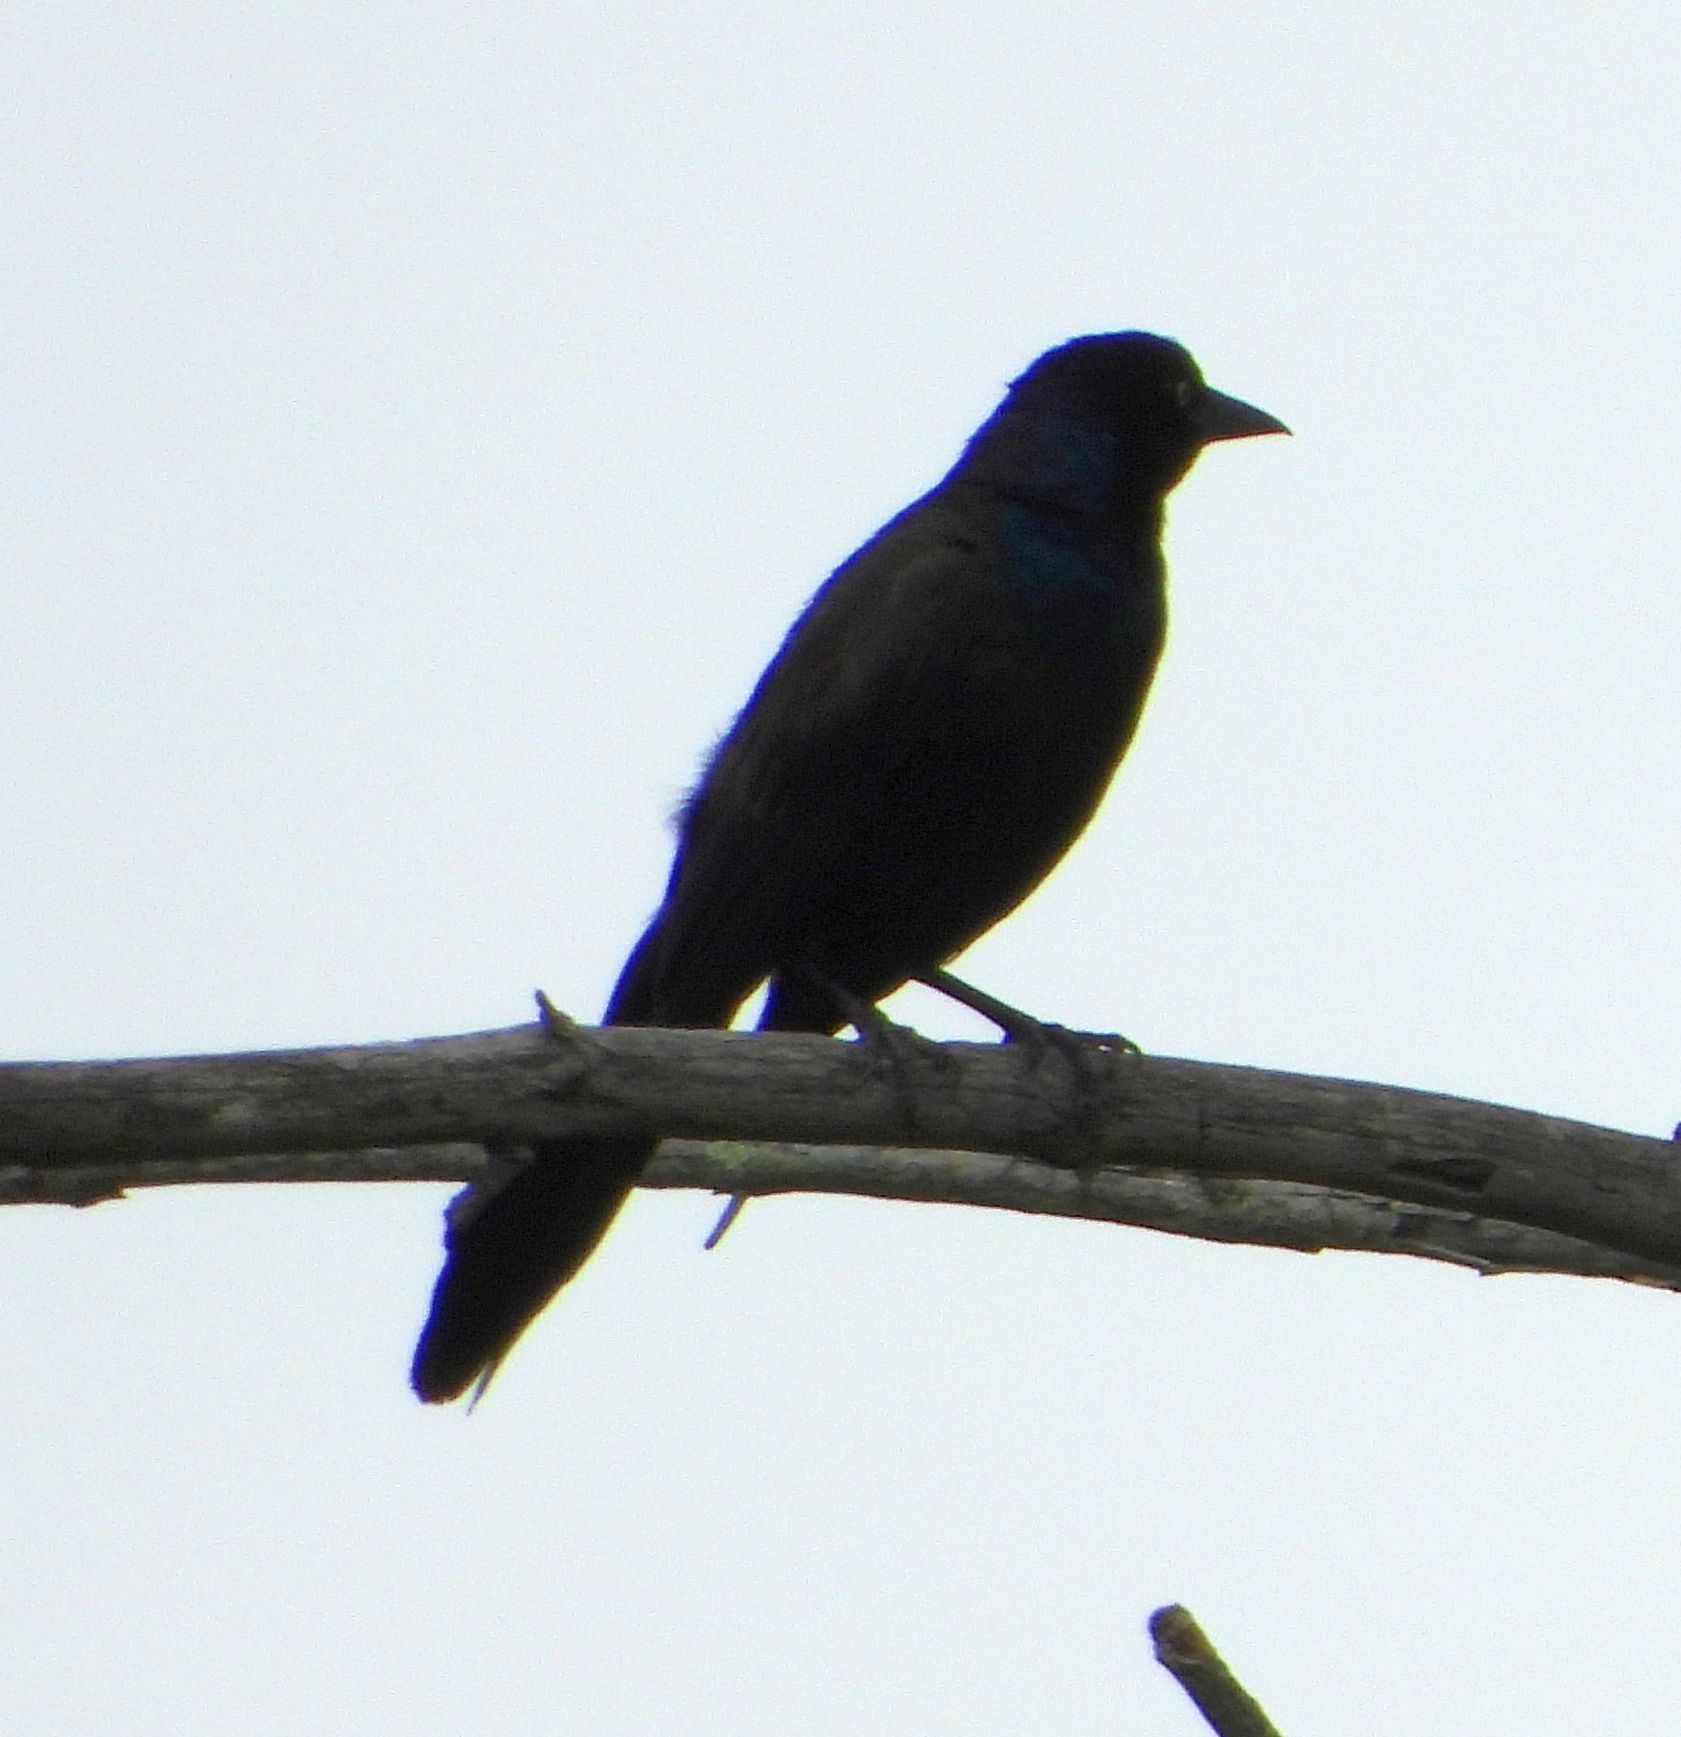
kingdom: Animalia
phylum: Chordata
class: Aves
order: Passeriformes
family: Icteridae
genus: Quiscalus
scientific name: Quiscalus quiscula
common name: Common grackle
